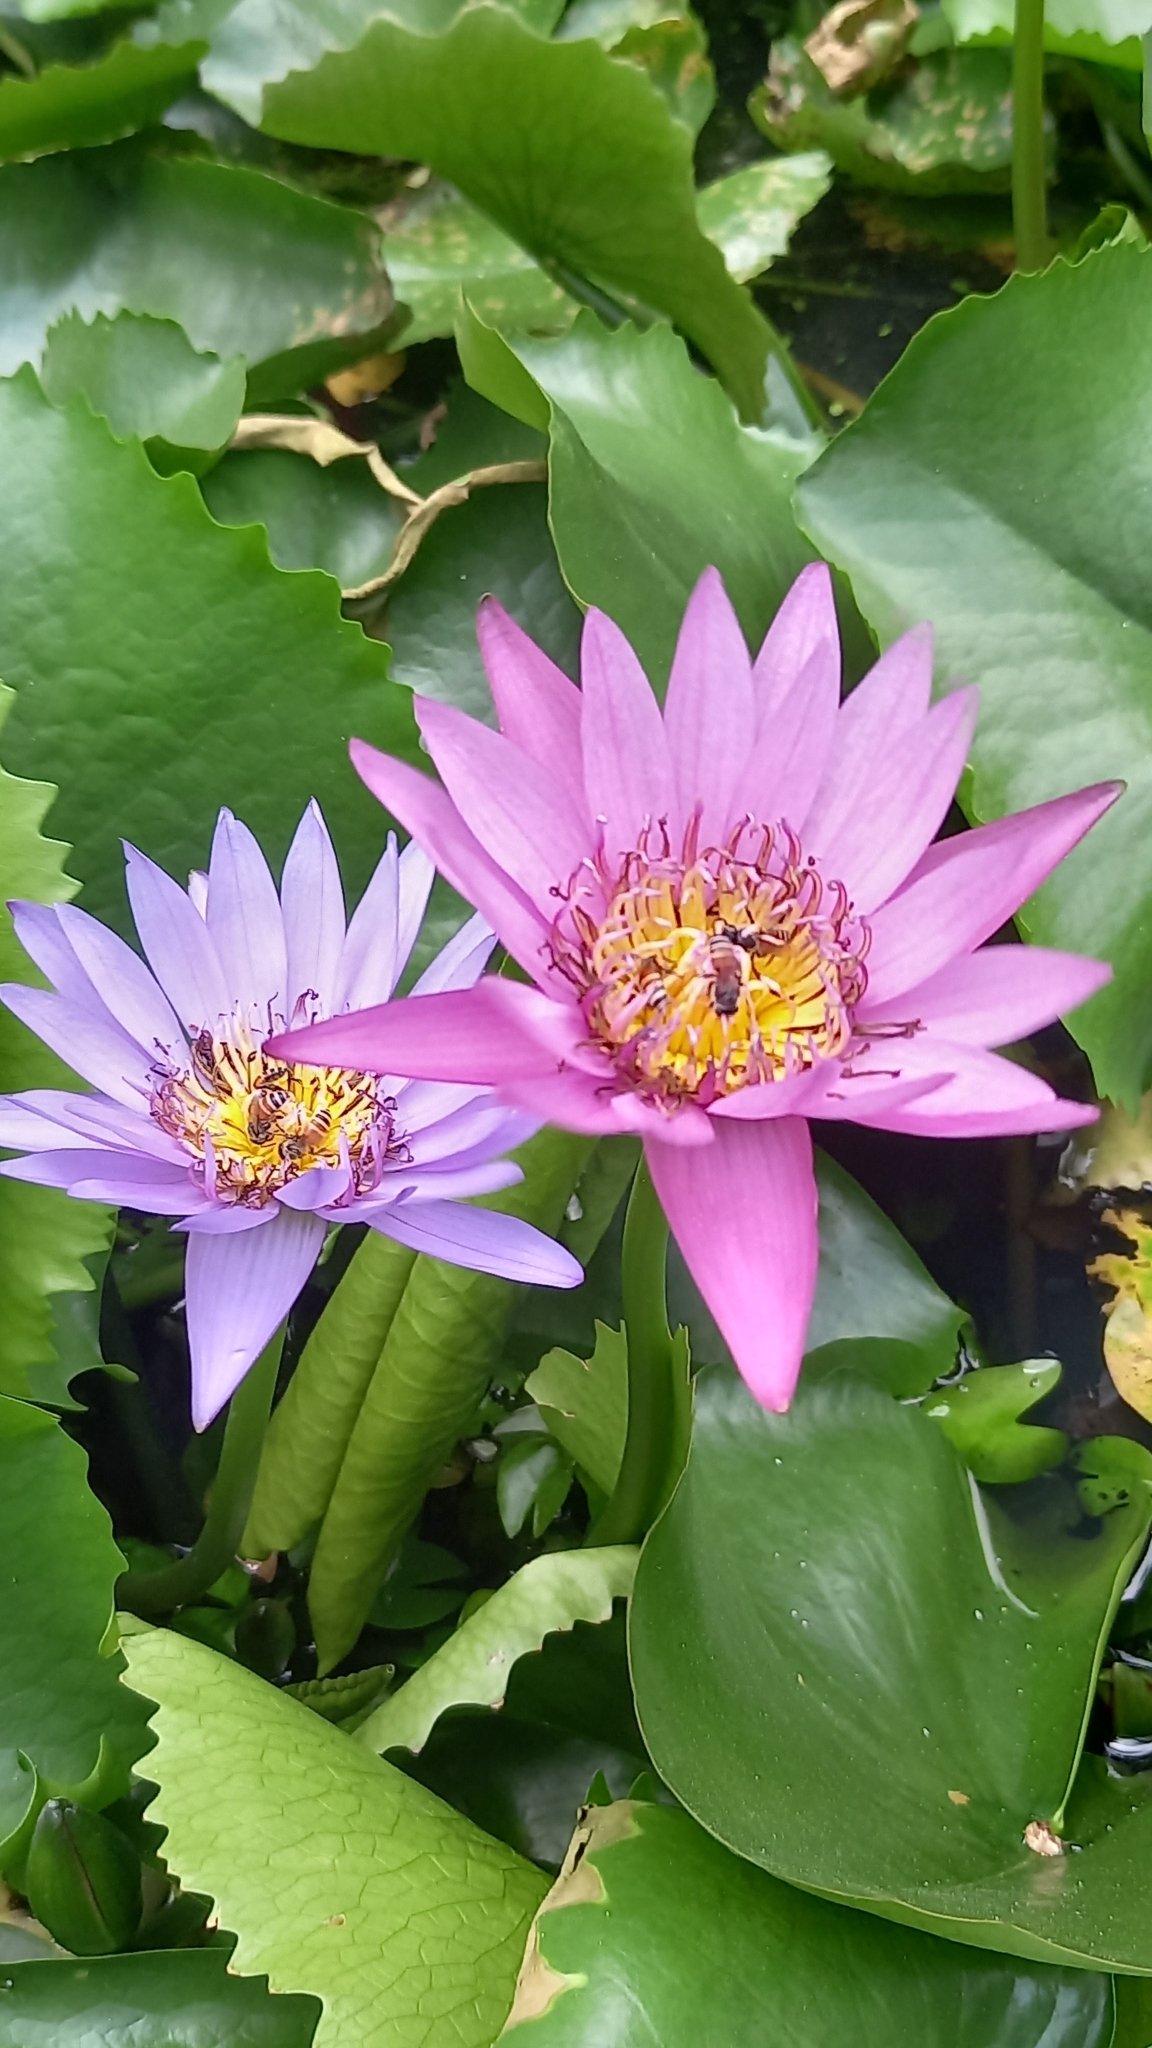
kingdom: Animalia
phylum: Arthropoda
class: Insecta
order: Hymenoptera
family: Apidae
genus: Apis
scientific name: Apis florea
